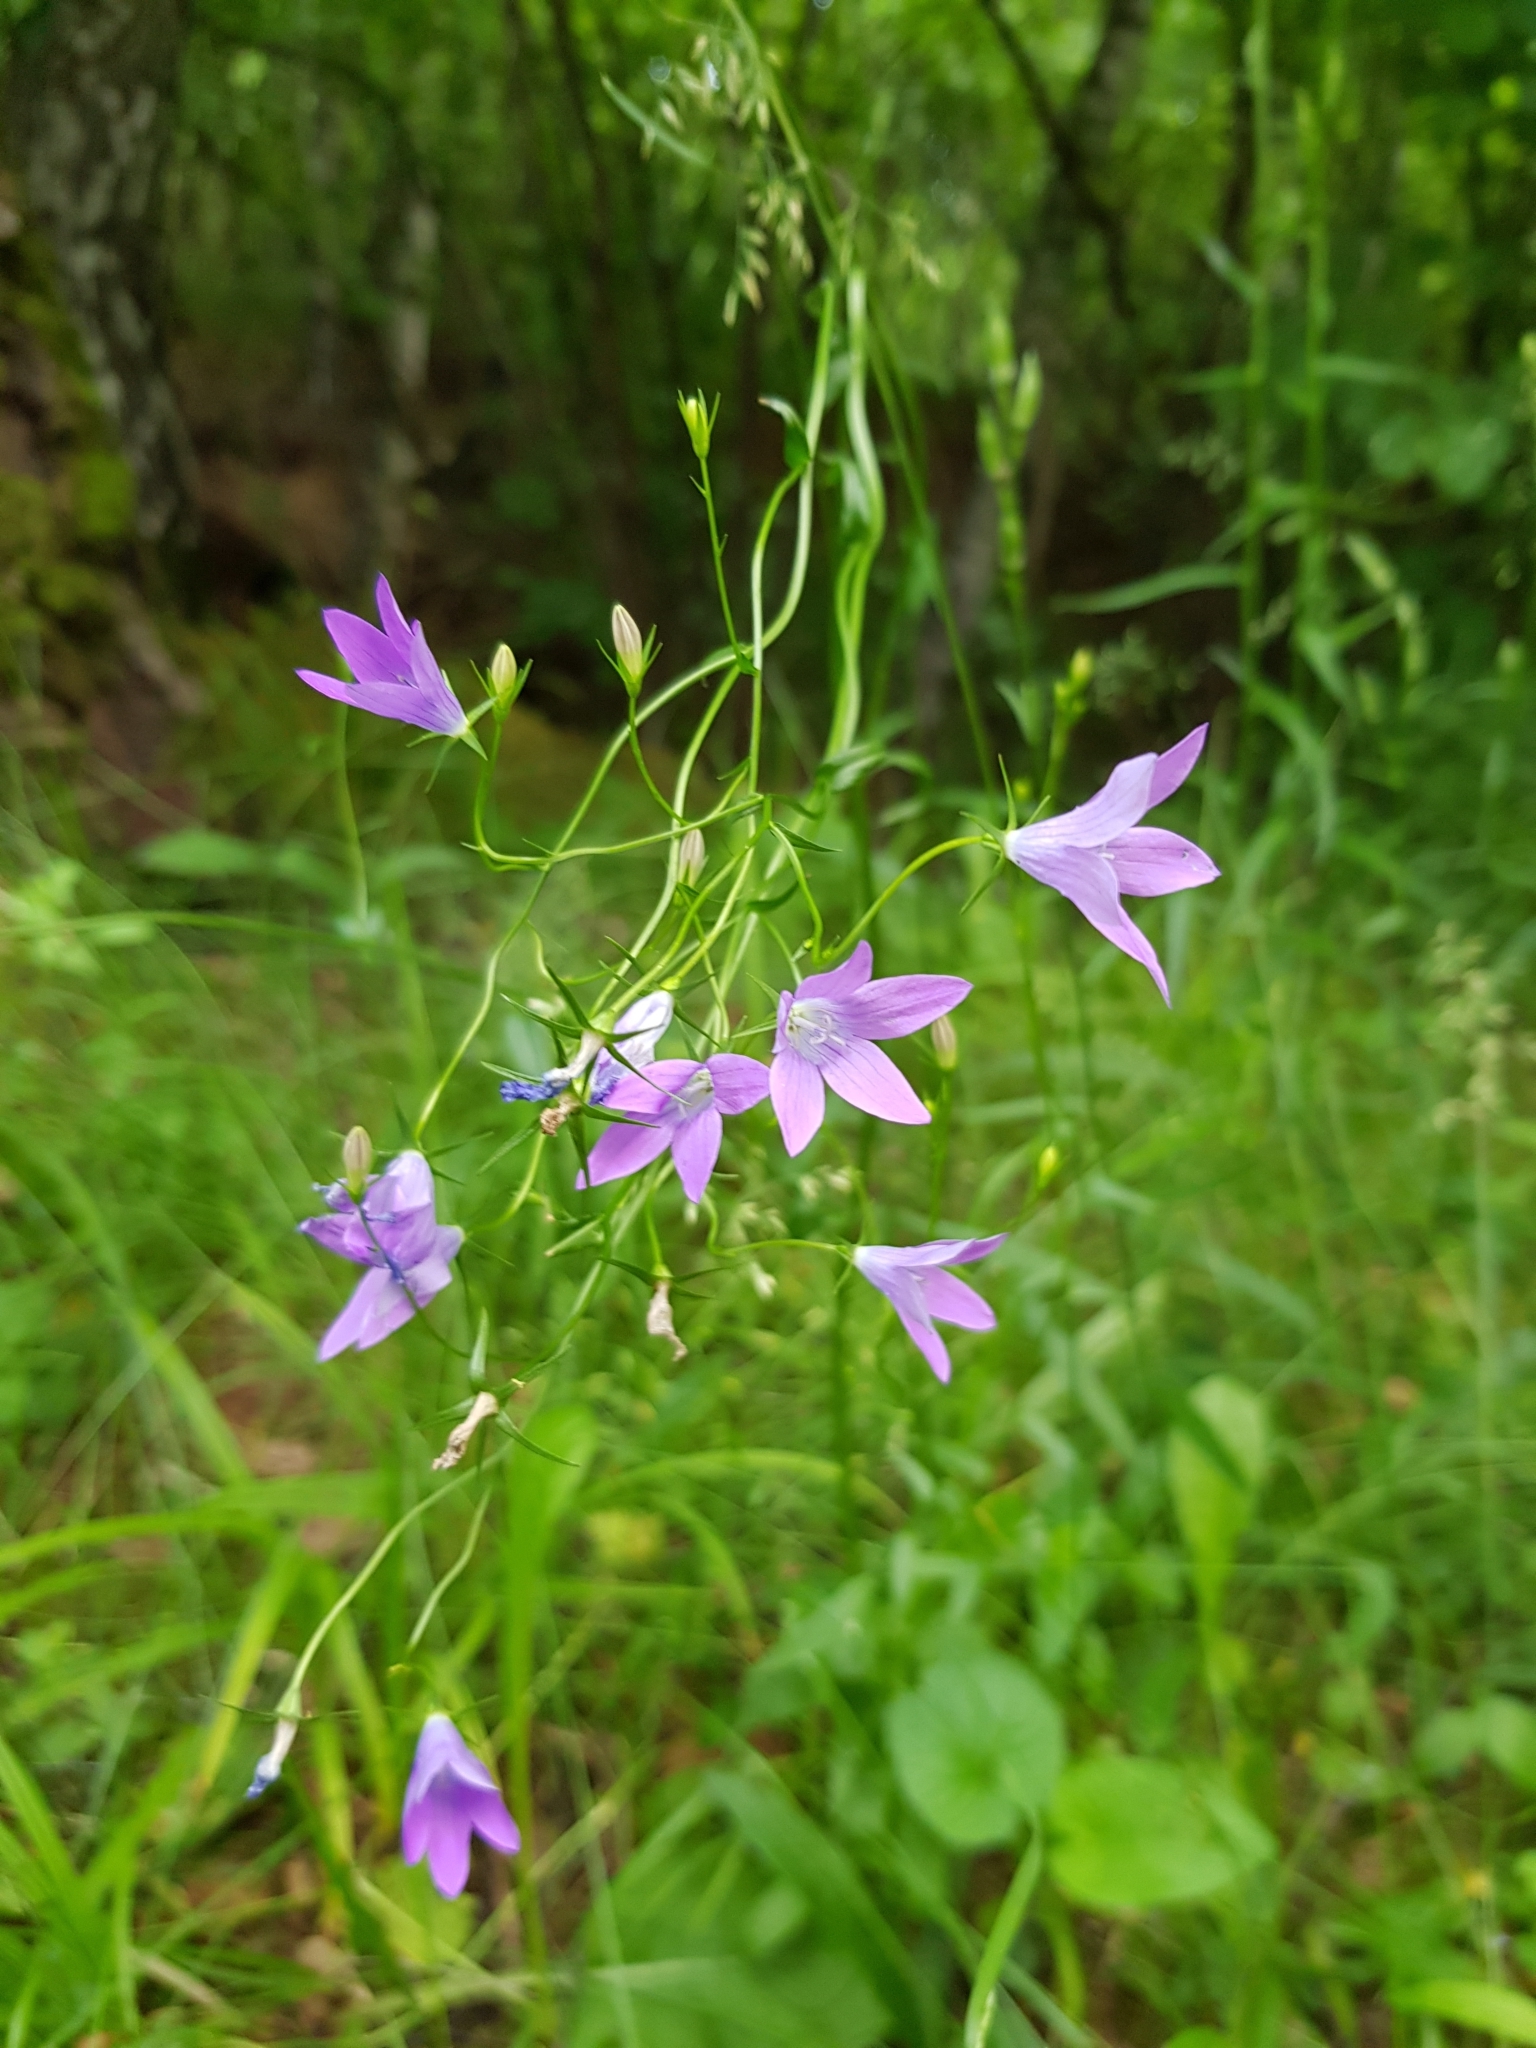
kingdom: Plantae
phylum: Tracheophyta
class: Magnoliopsida
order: Asterales
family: Campanulaceae
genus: Campanula
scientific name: Campanula patula
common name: Spreading bellflower
